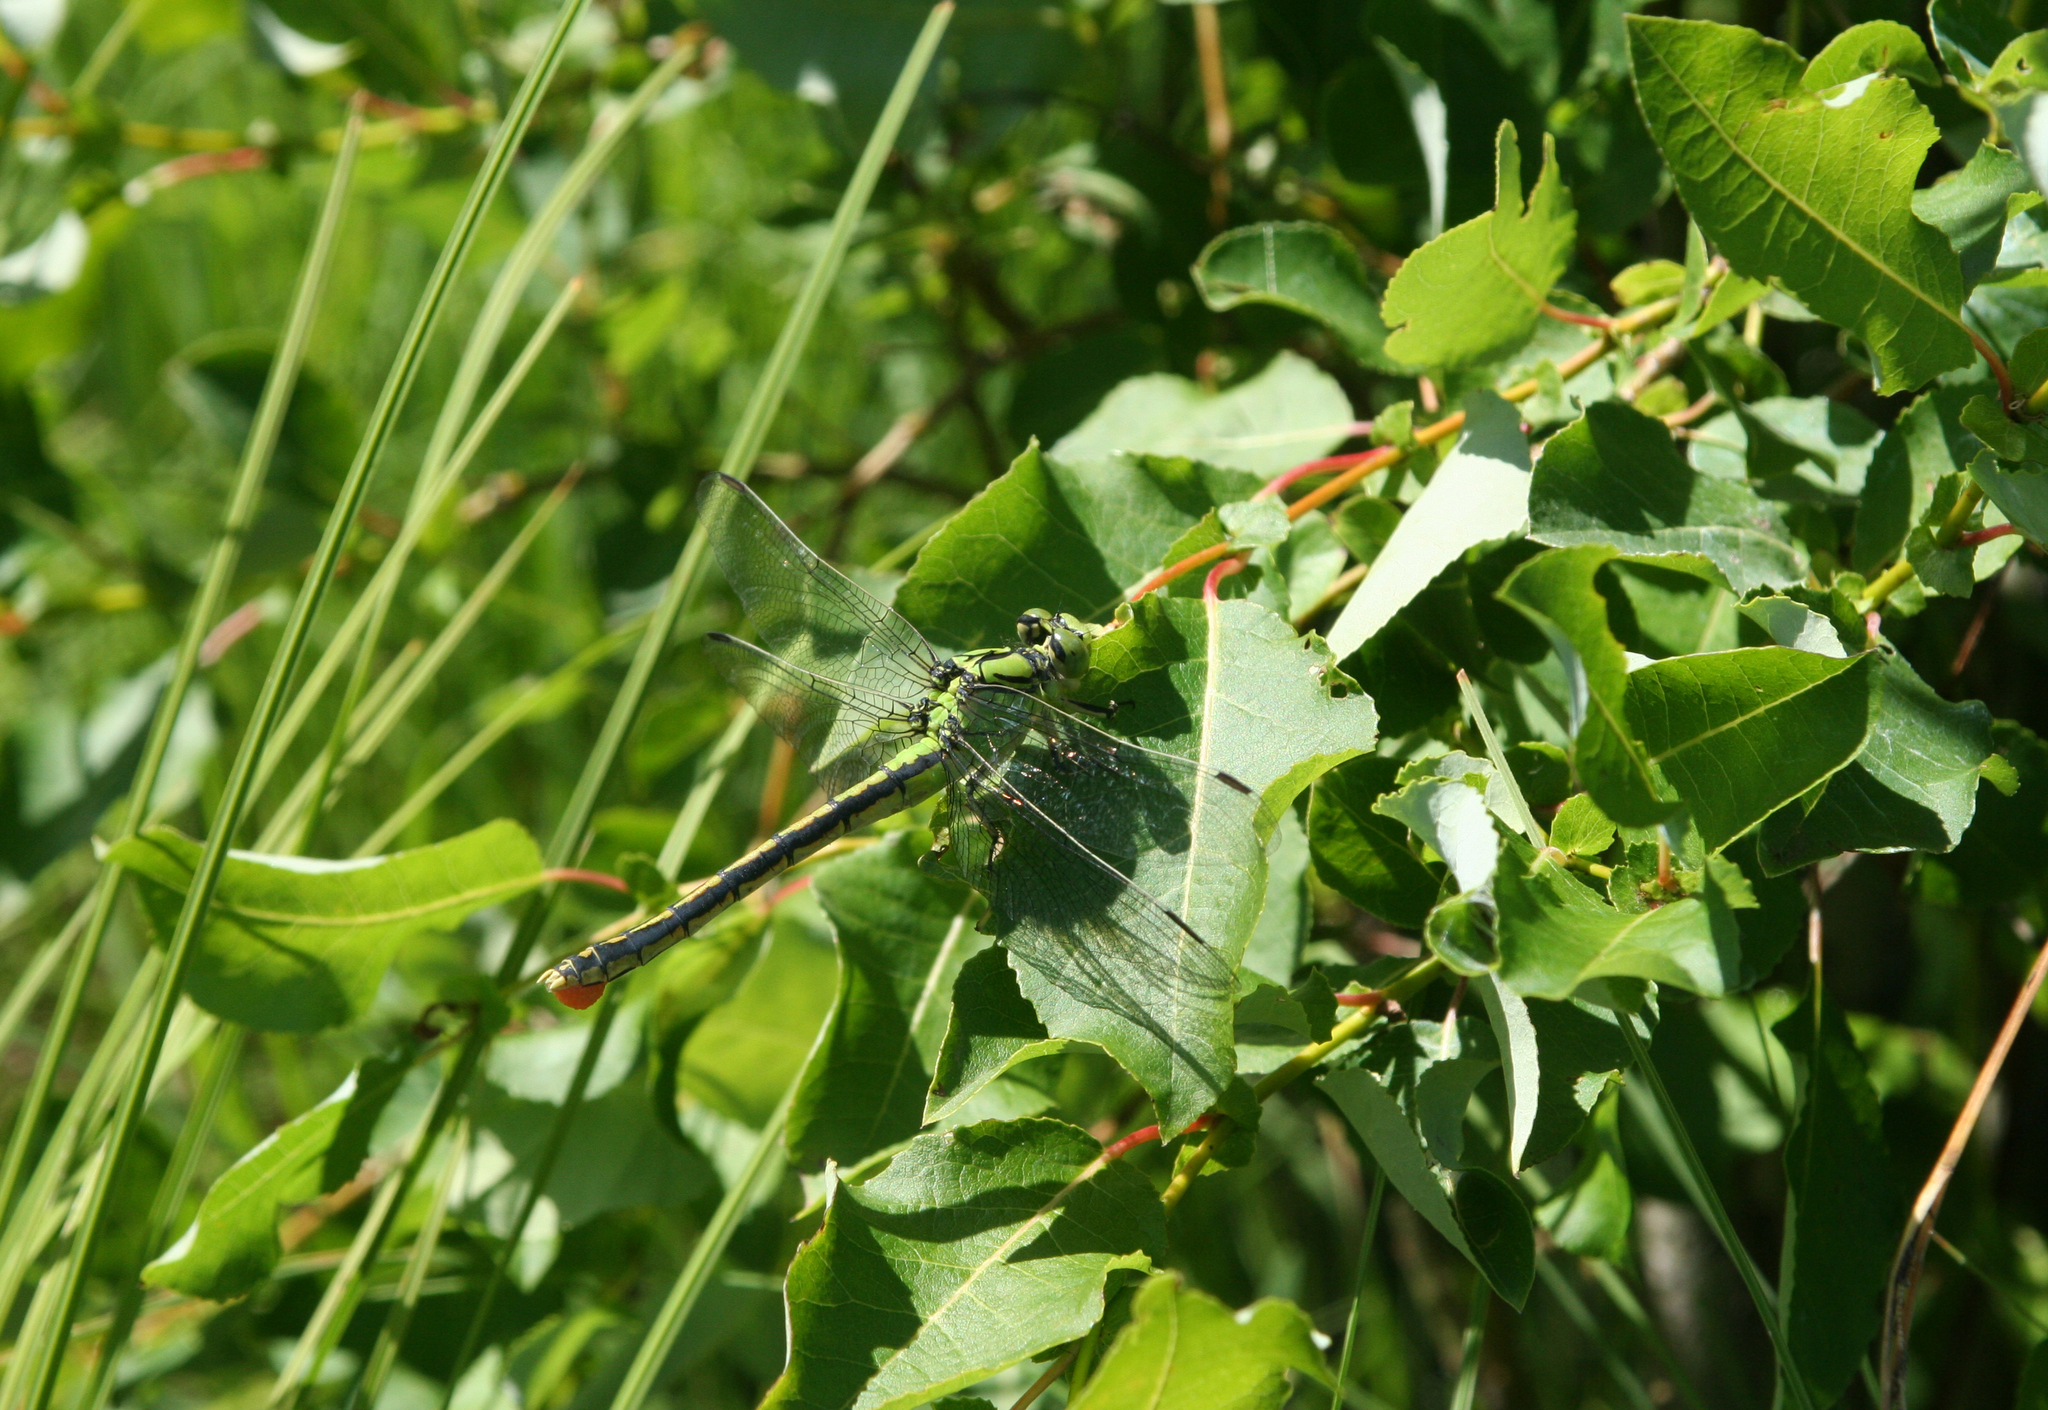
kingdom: Plantae
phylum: Tracheophyta
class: Magnoliopsida
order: Malpighiales
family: Salicaceae
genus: Salix
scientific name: Salix pyrolifolia
